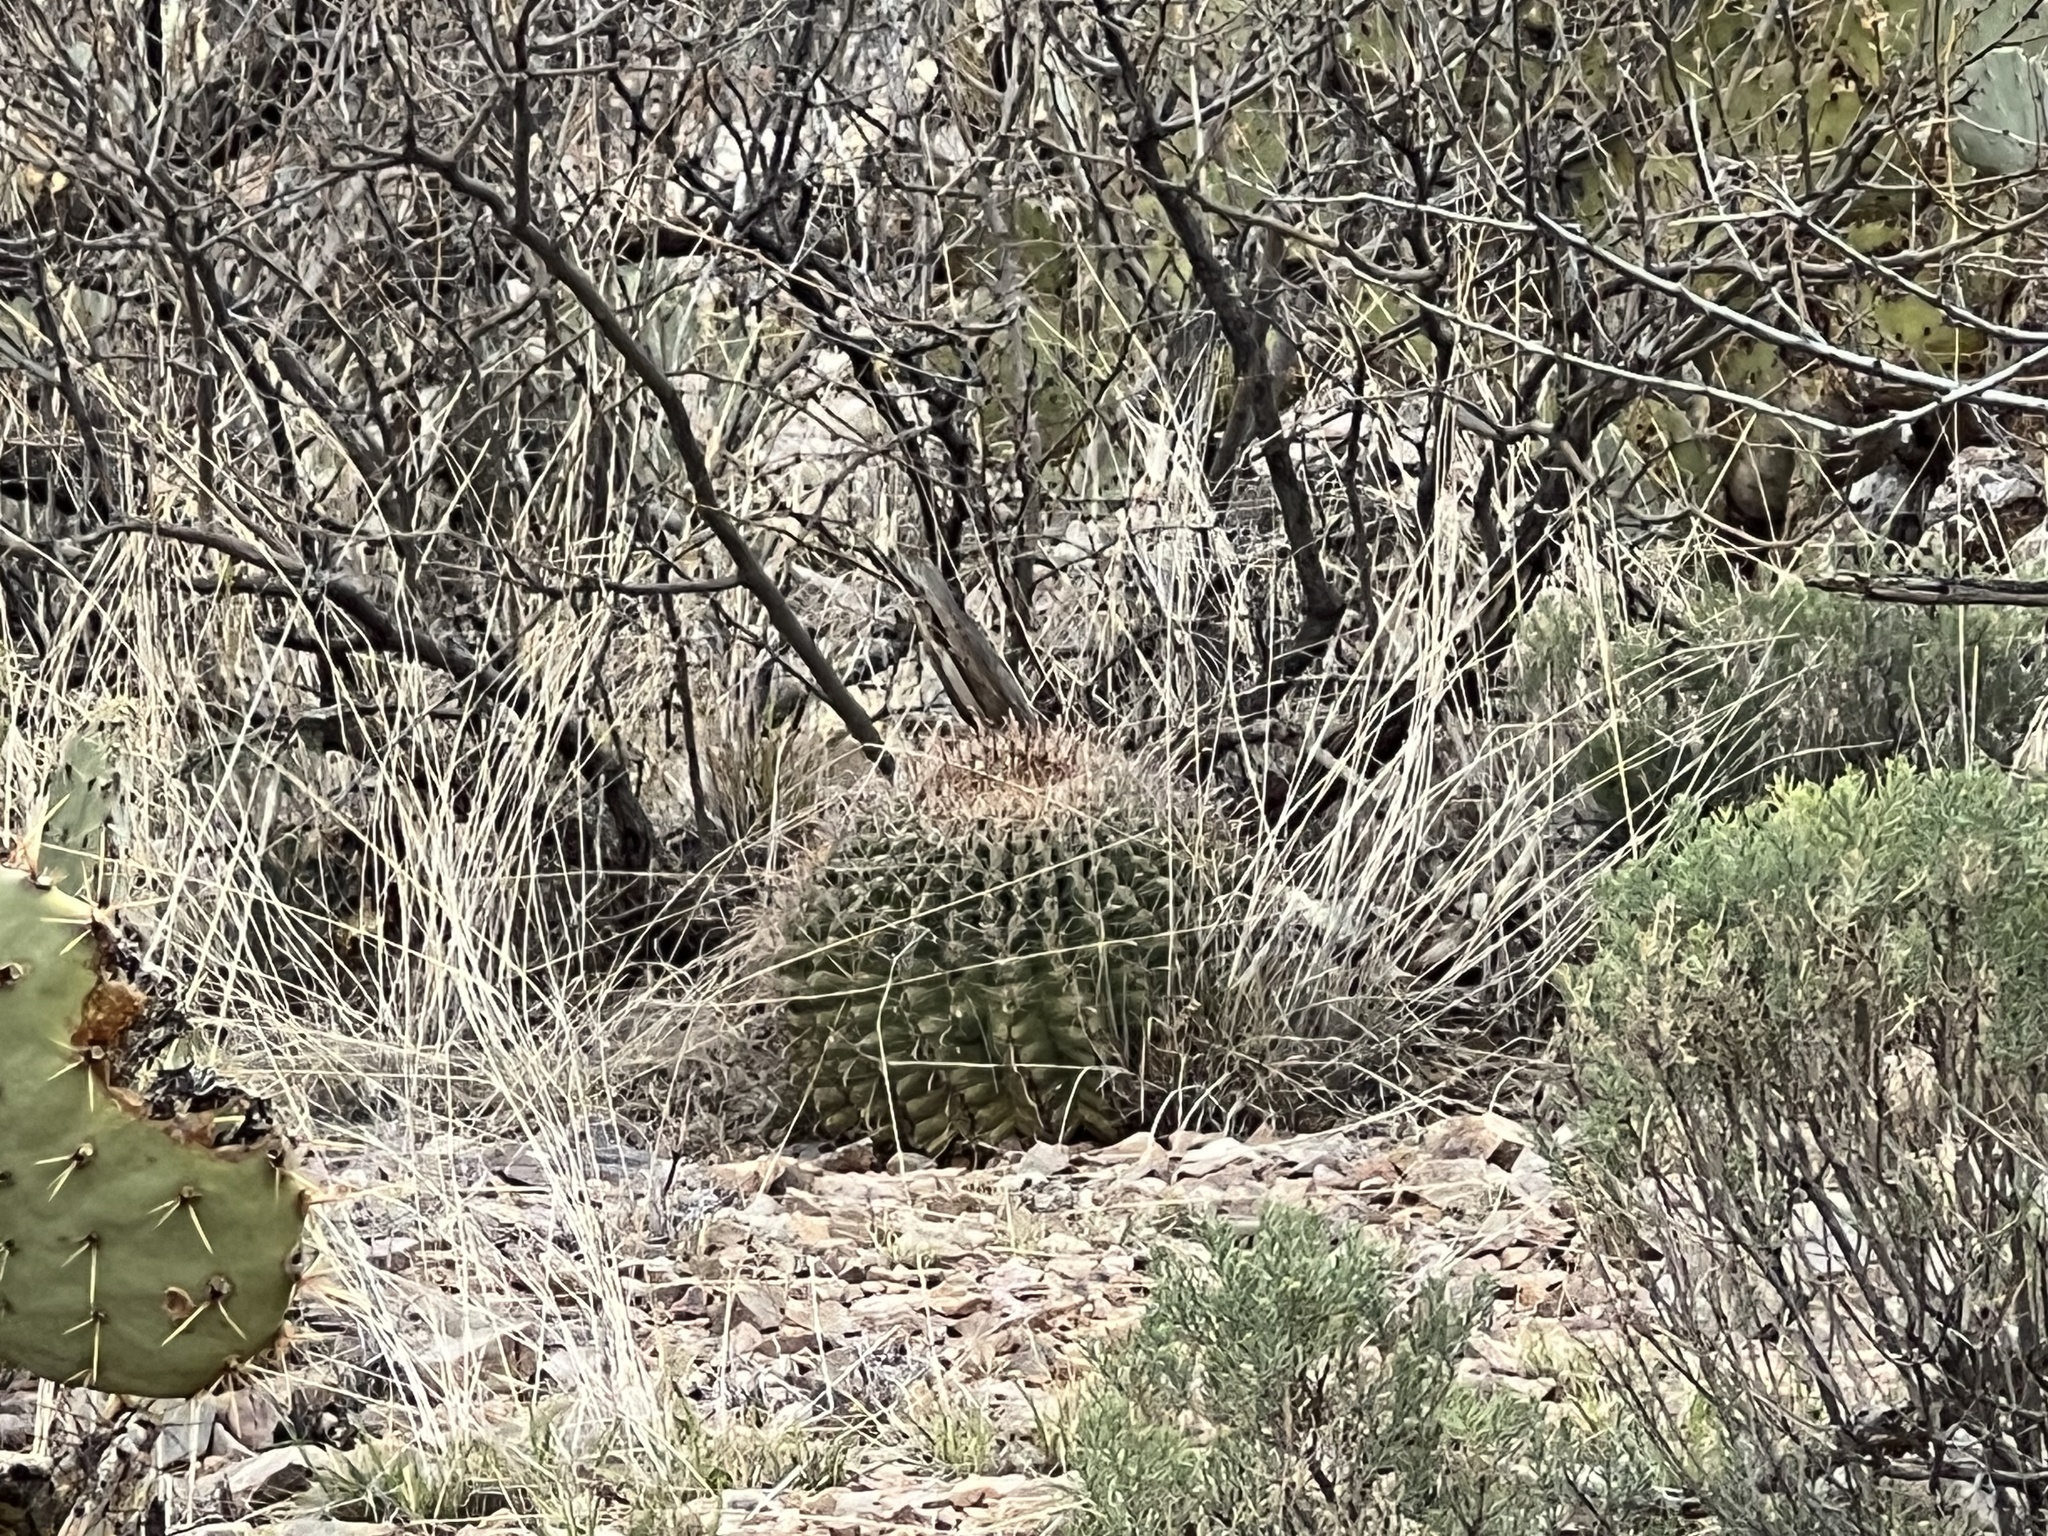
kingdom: Plantae
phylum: Tracheophyta
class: Magnoliopsida
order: Caryophyllales
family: Cactaceae
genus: Ferocactus
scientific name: Ferocactus wislizeni
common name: Candy barrel cactus
